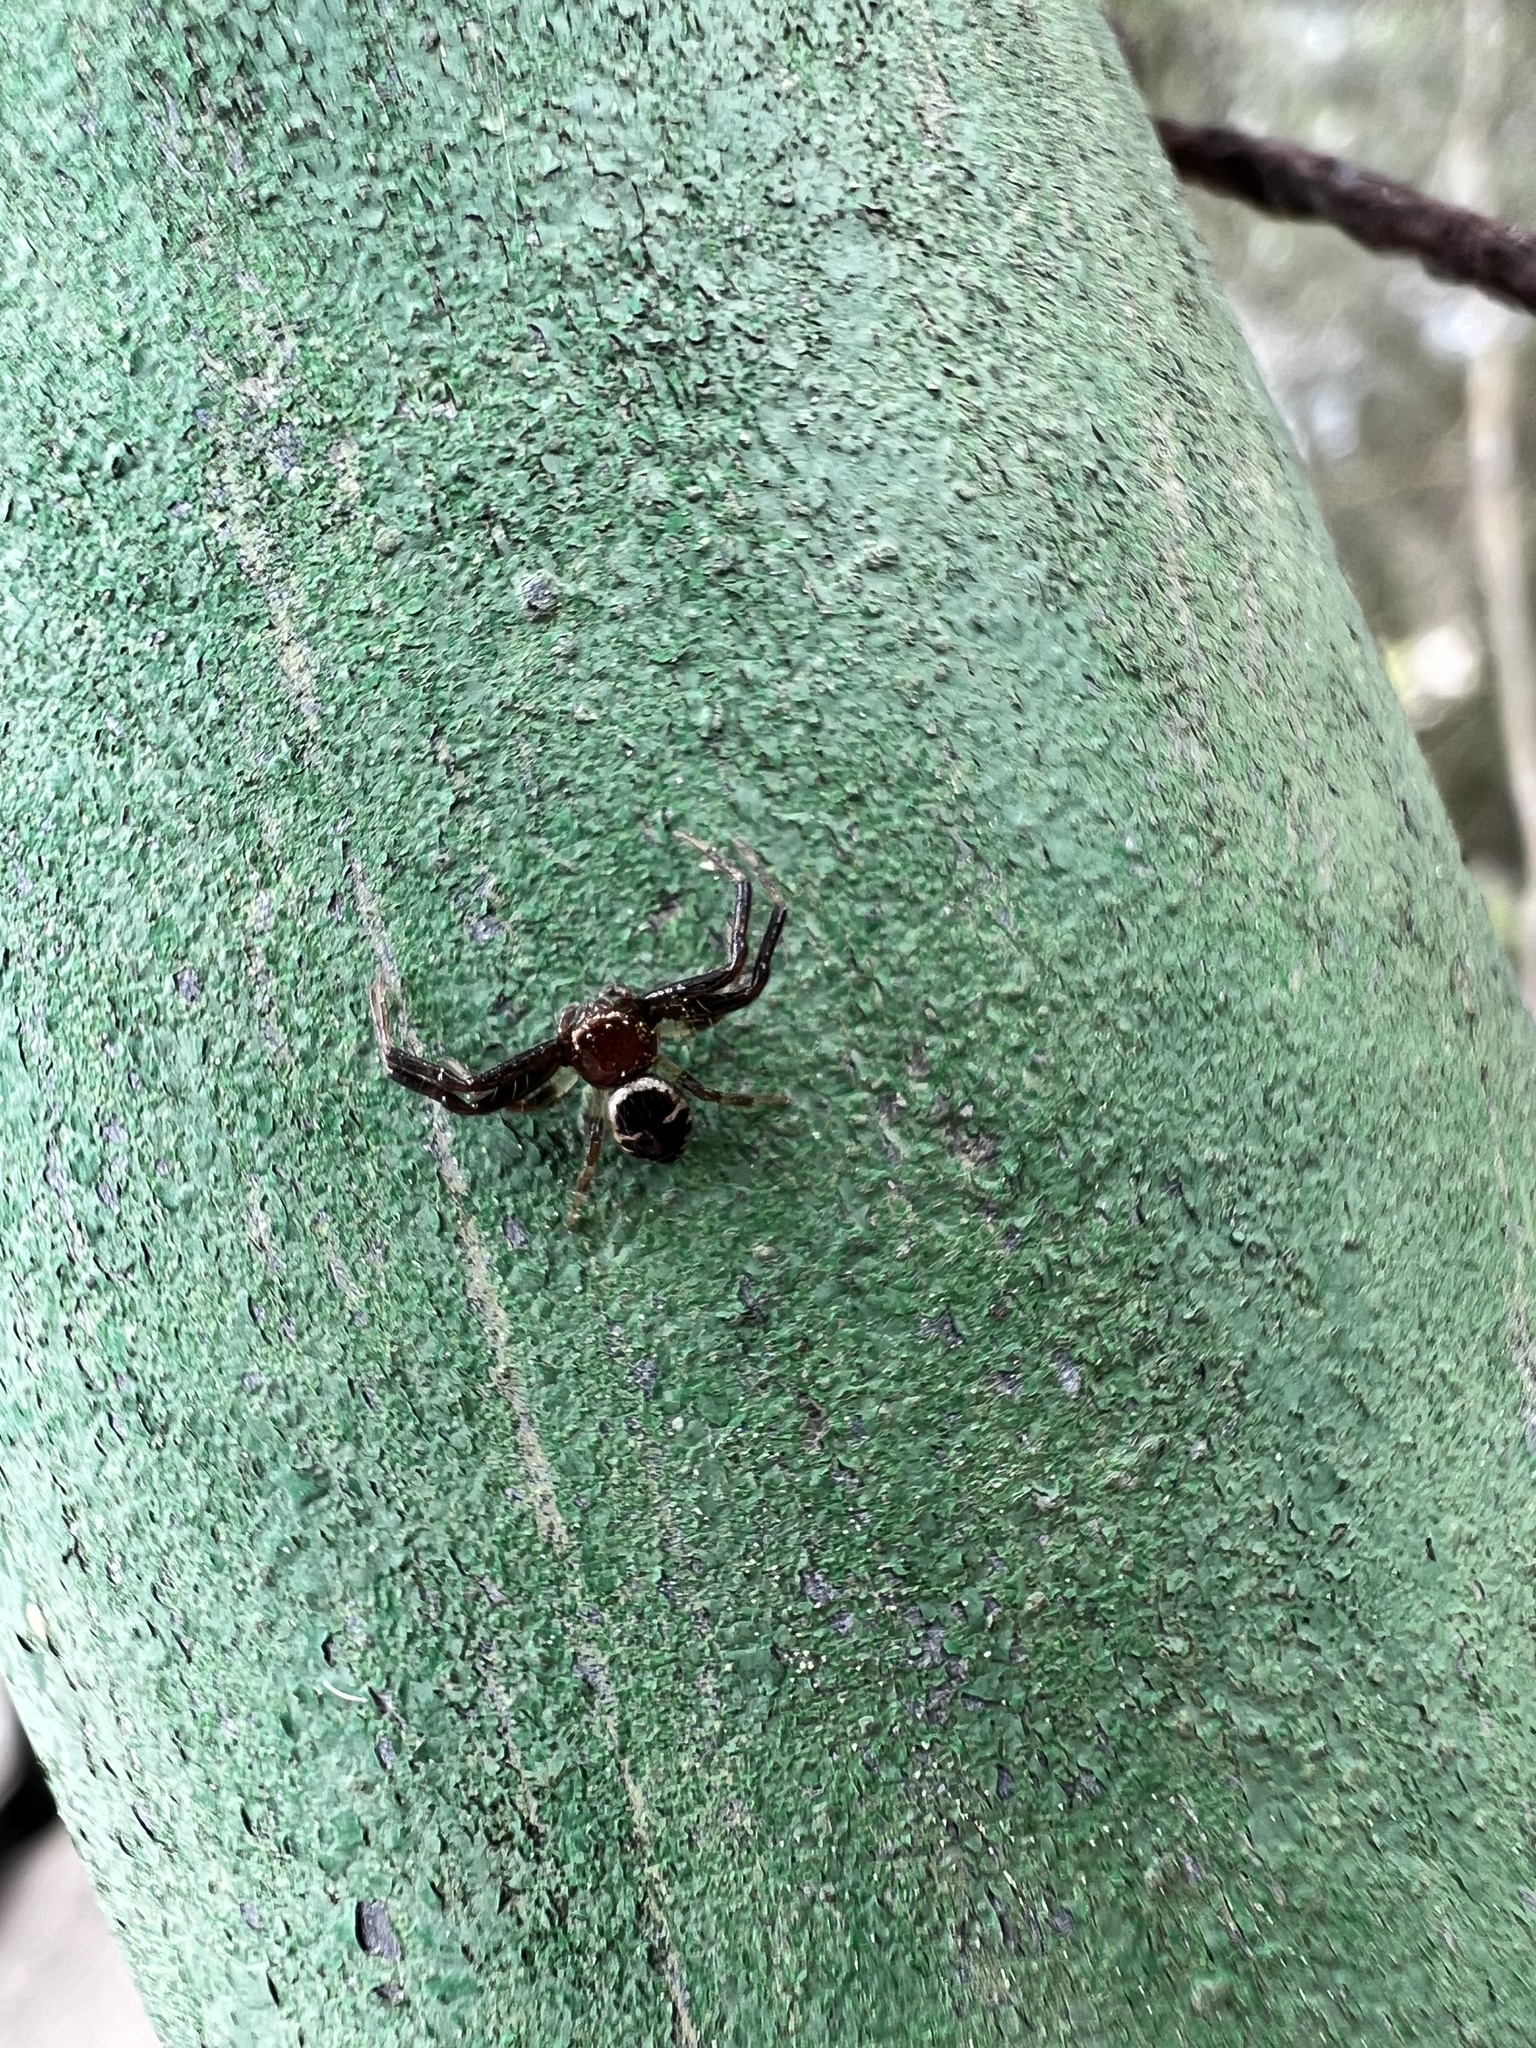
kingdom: Animalia
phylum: Arthropoda
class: Arachnida
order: Araneae
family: Thomisidae
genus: Synema
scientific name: Synema globosum
